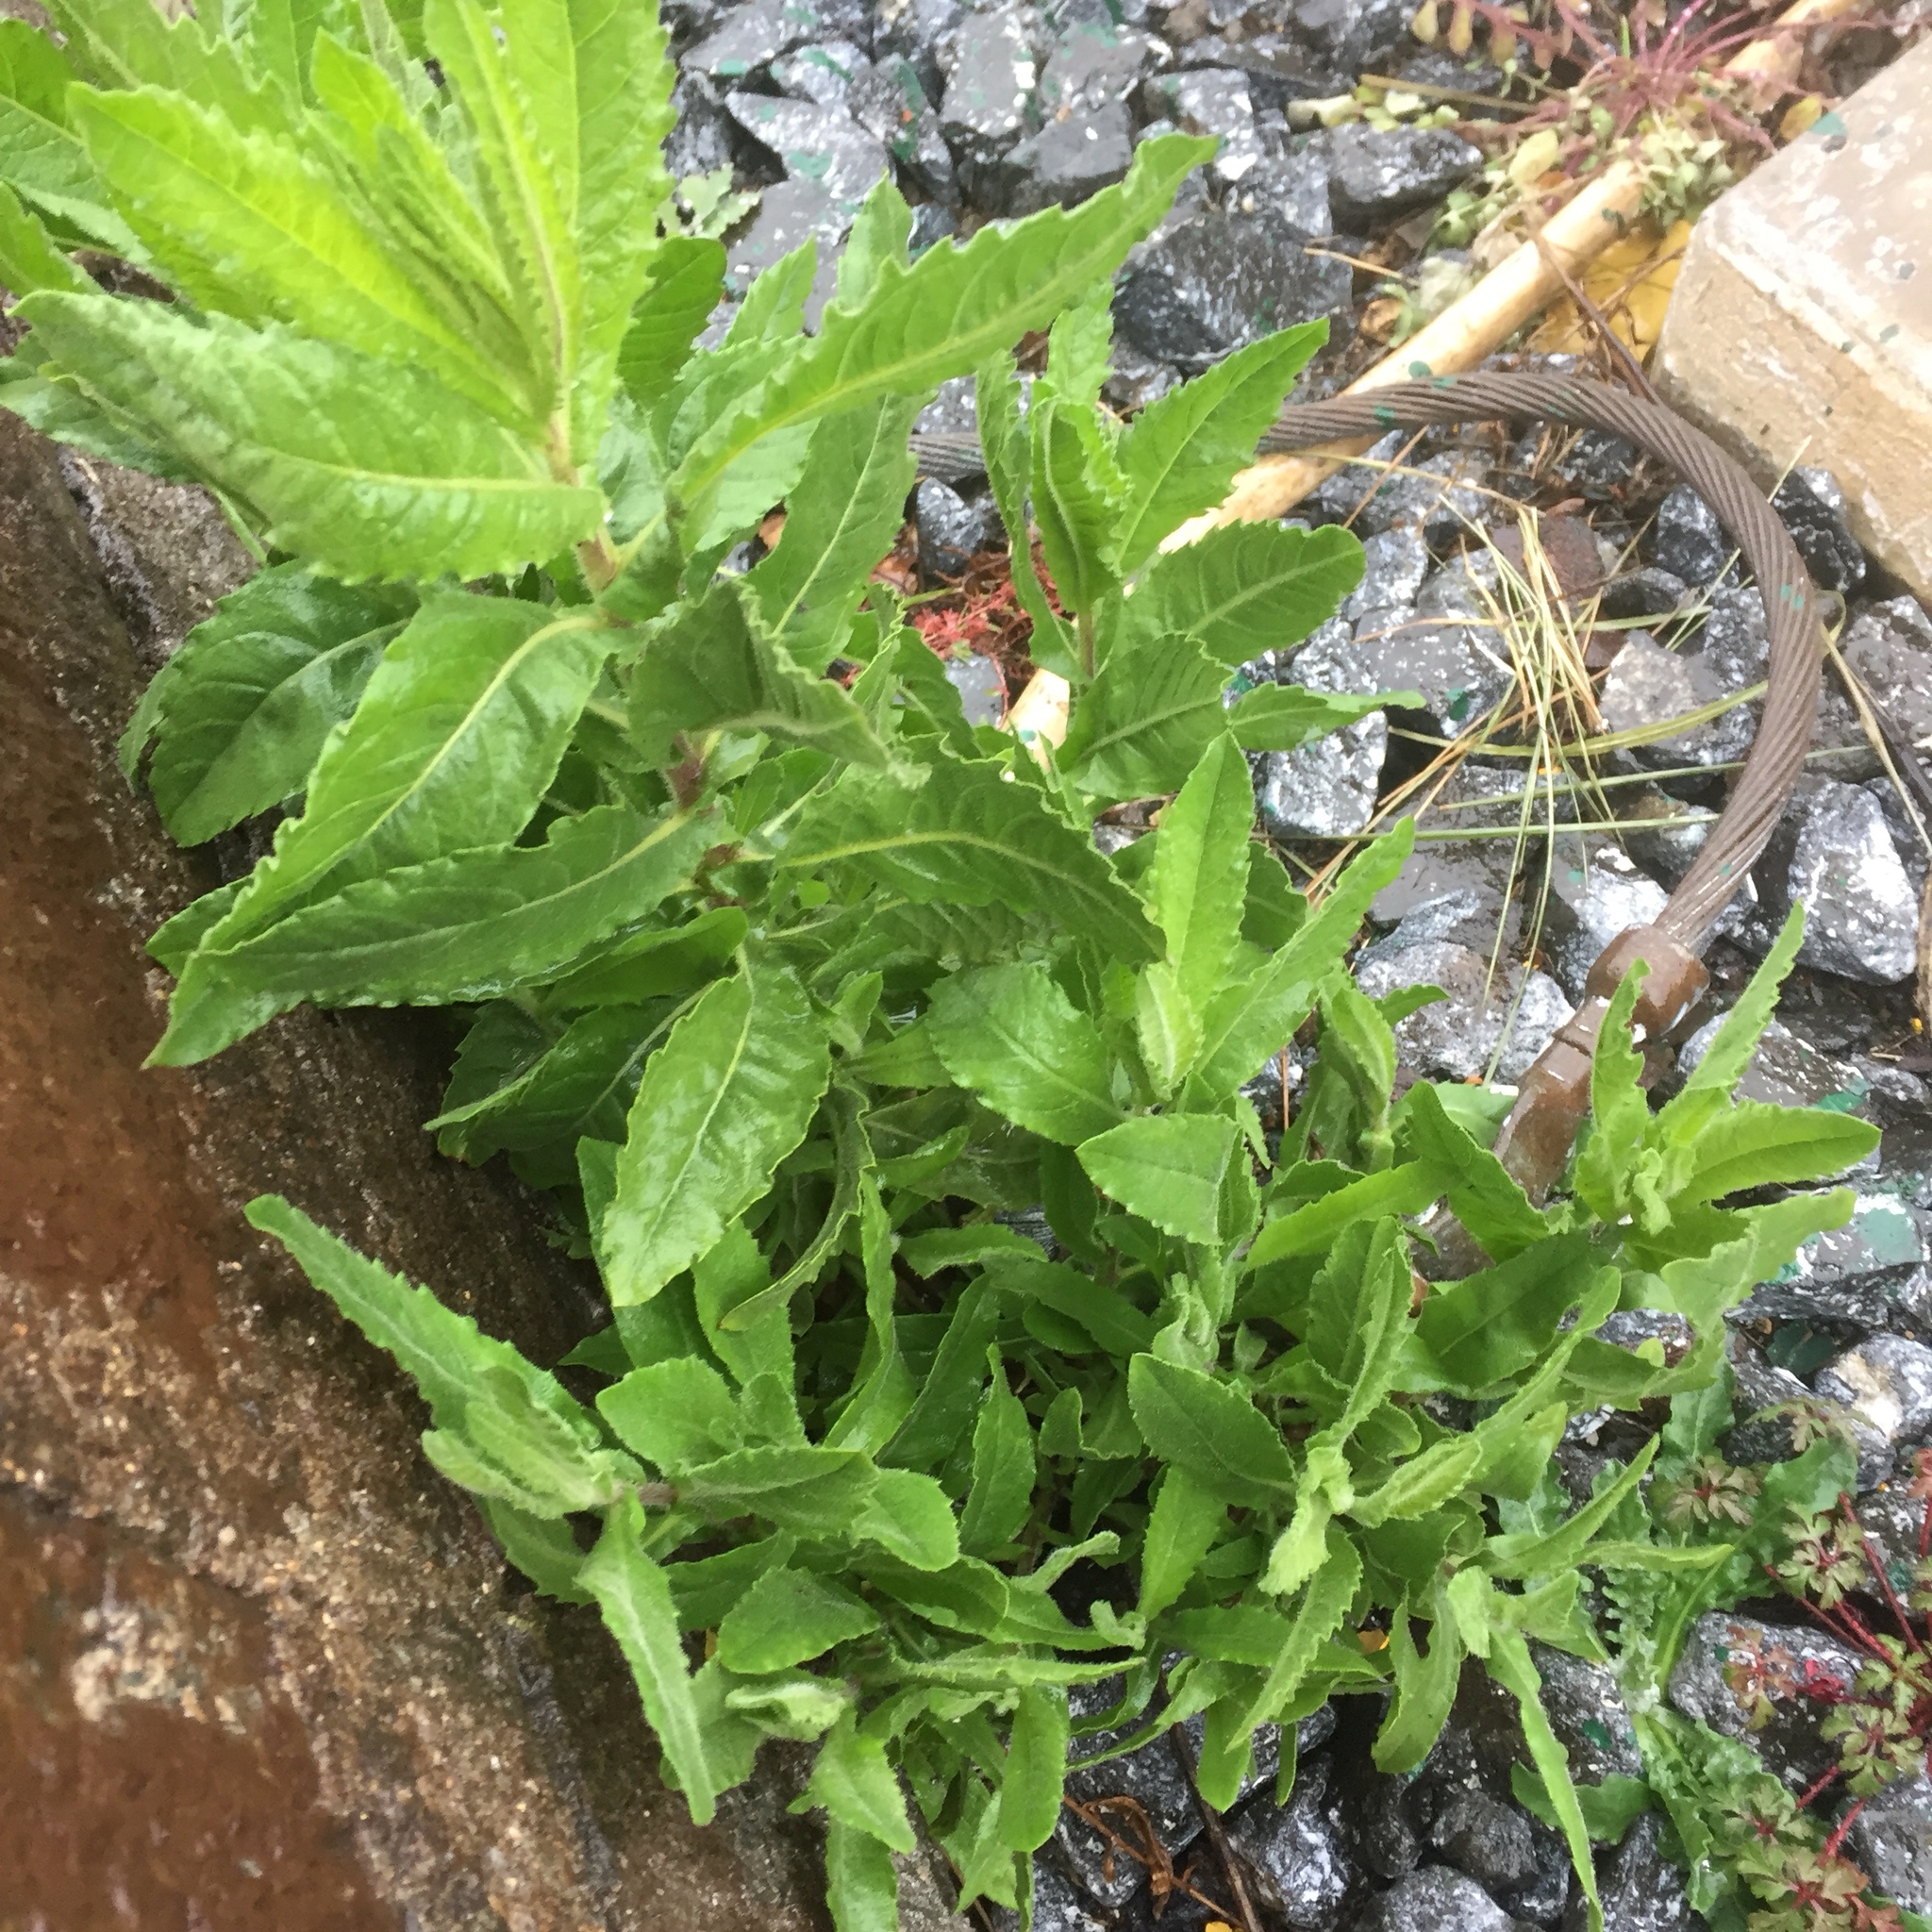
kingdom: Plantae
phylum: Tracheophyta
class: Magnoliopsida
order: Asterales
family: Asteraceae
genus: Dittrichia
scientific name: Dittrichia viscosa
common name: Woody fleabane
